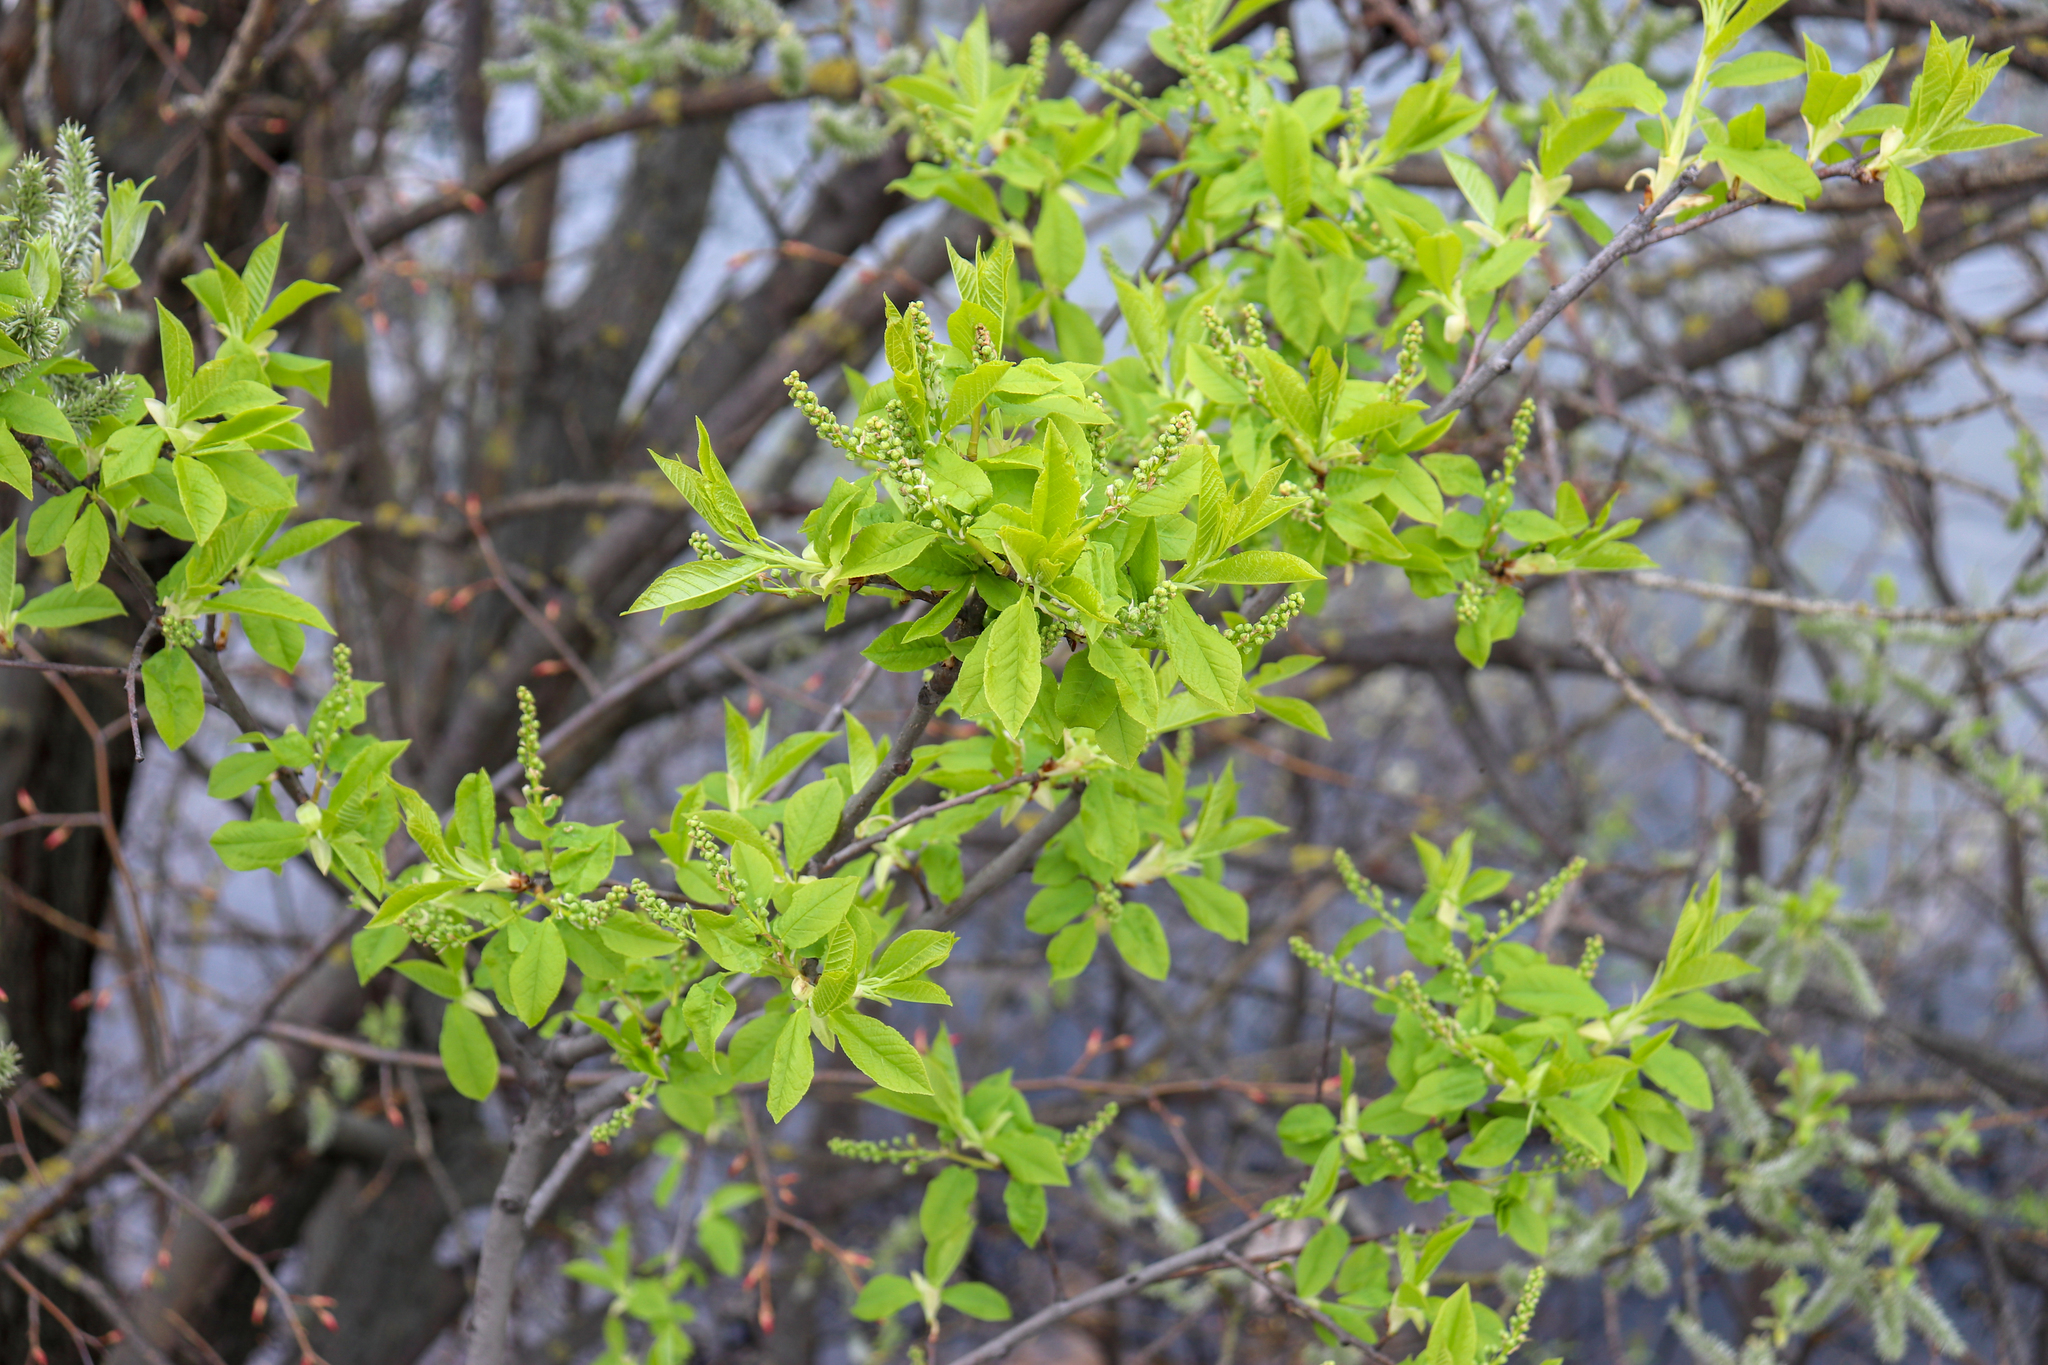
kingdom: Plantae
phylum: Tracheophyta
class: Magnoliopsida
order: Rosales
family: Rosaceae
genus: Prunus
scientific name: Prunus padus
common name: Bird cherry
